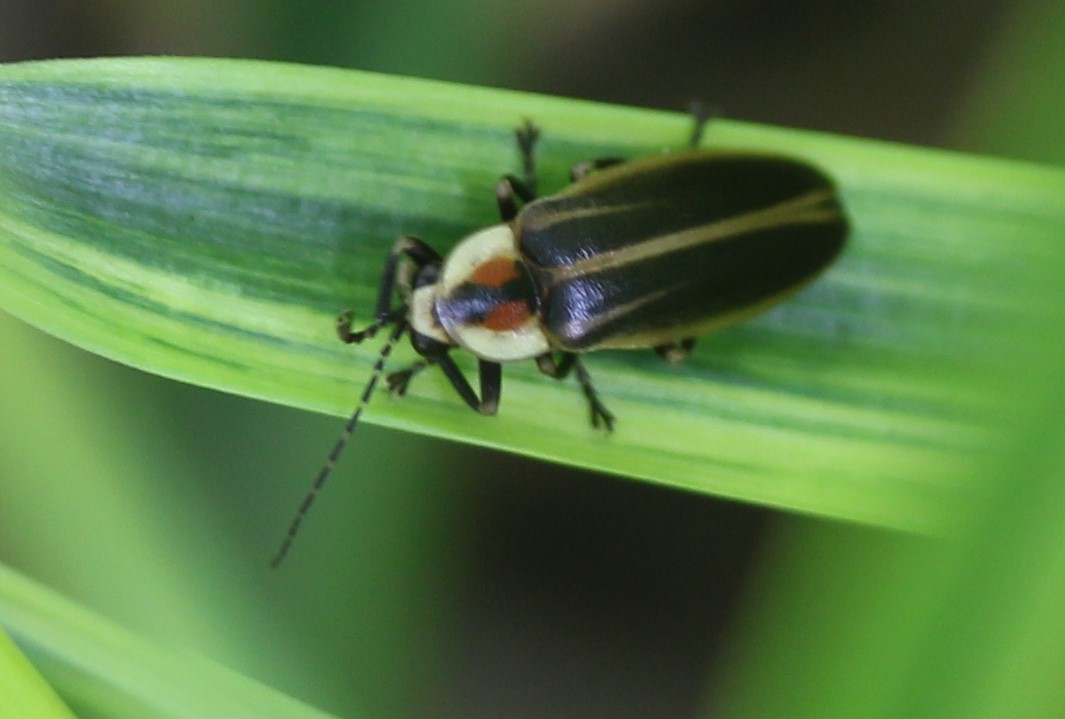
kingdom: Animalia
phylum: Arthropoda
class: Insecta
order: Coleoptera
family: Lampyridae
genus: Photuris
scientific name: Photuris
